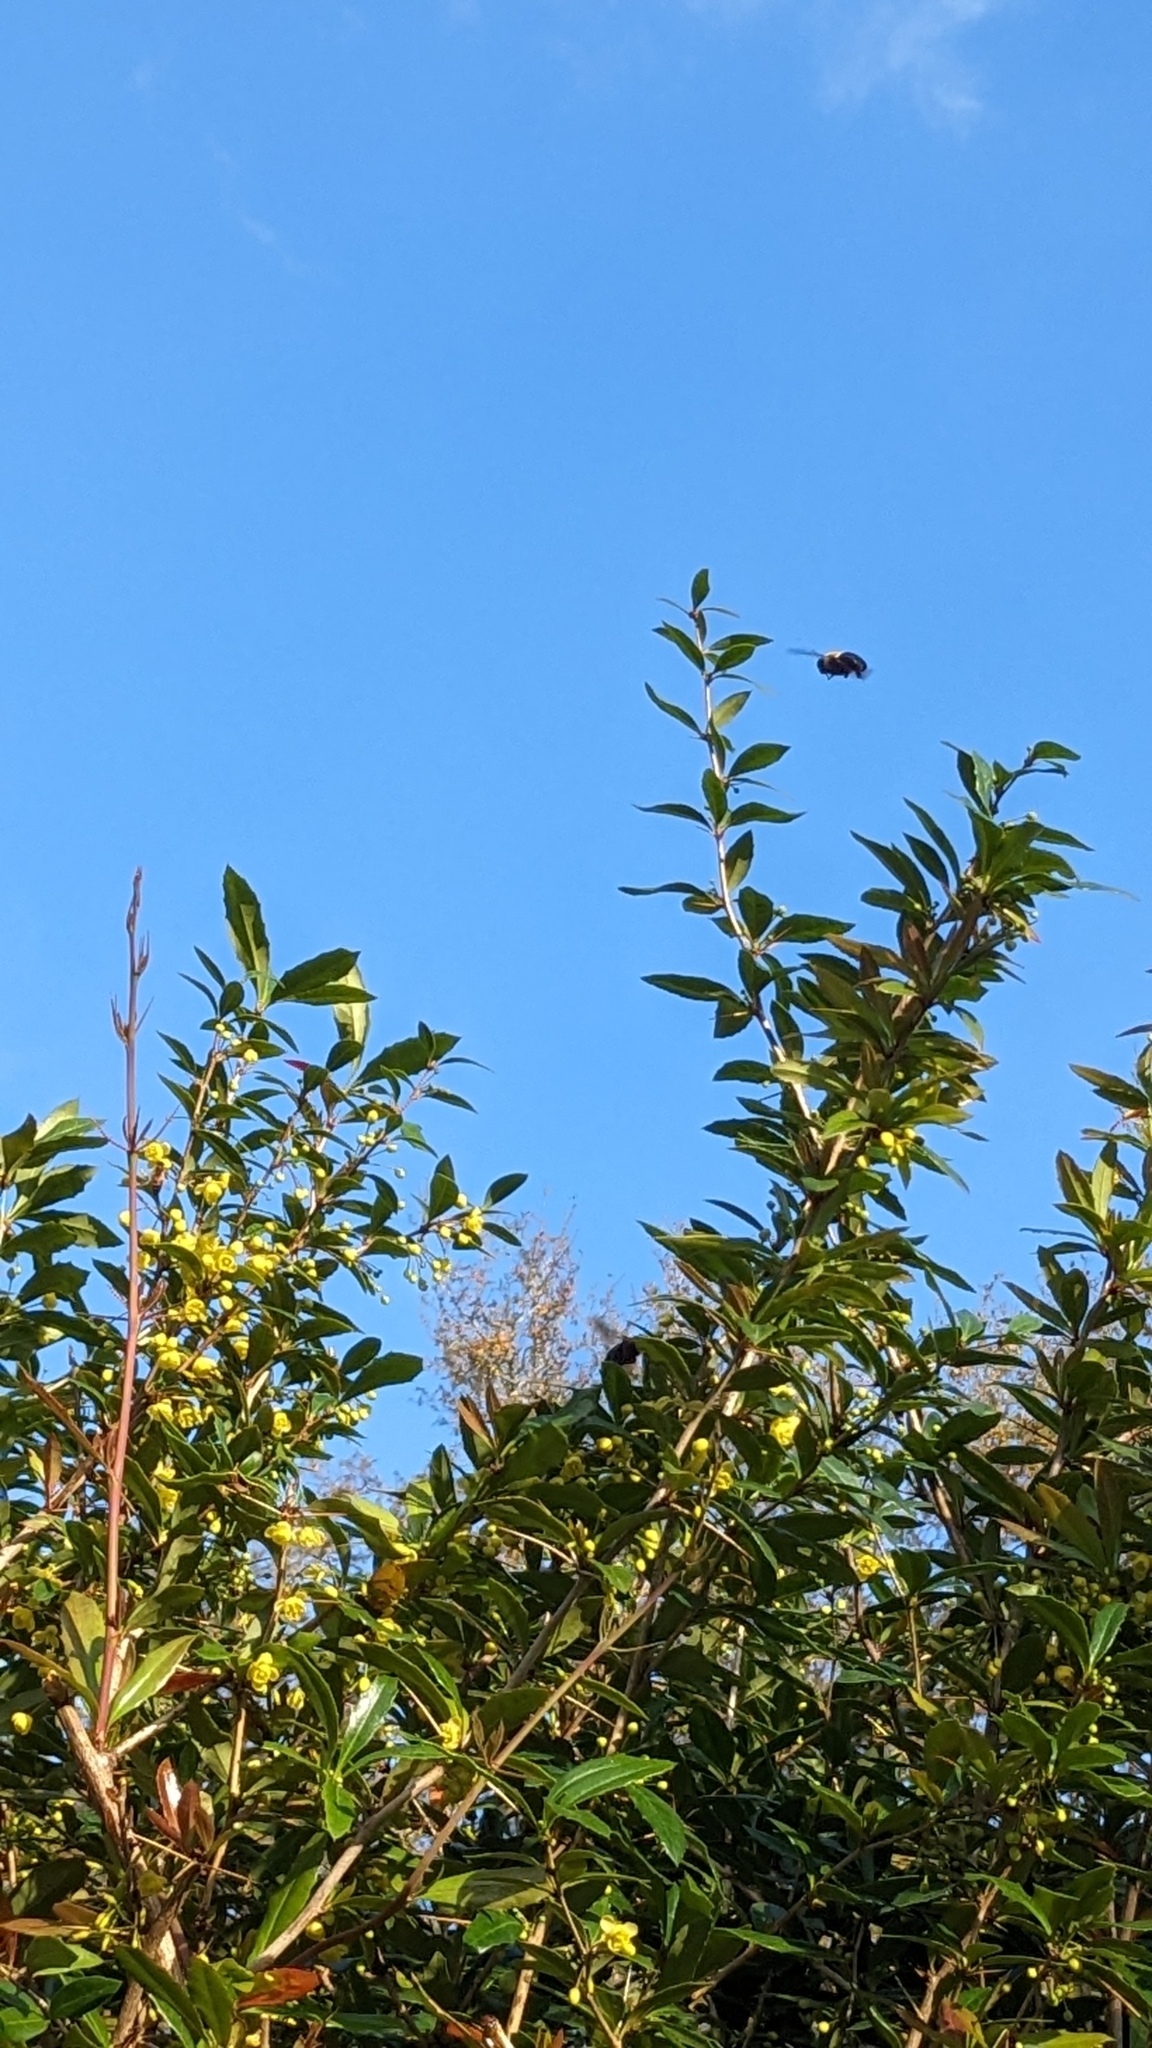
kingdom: Animalia
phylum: Arthropoda
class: Insecta
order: Hymenoptera
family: Apidae
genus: Xylocopa
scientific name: Xylocopa virginica
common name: Carpenter bee
